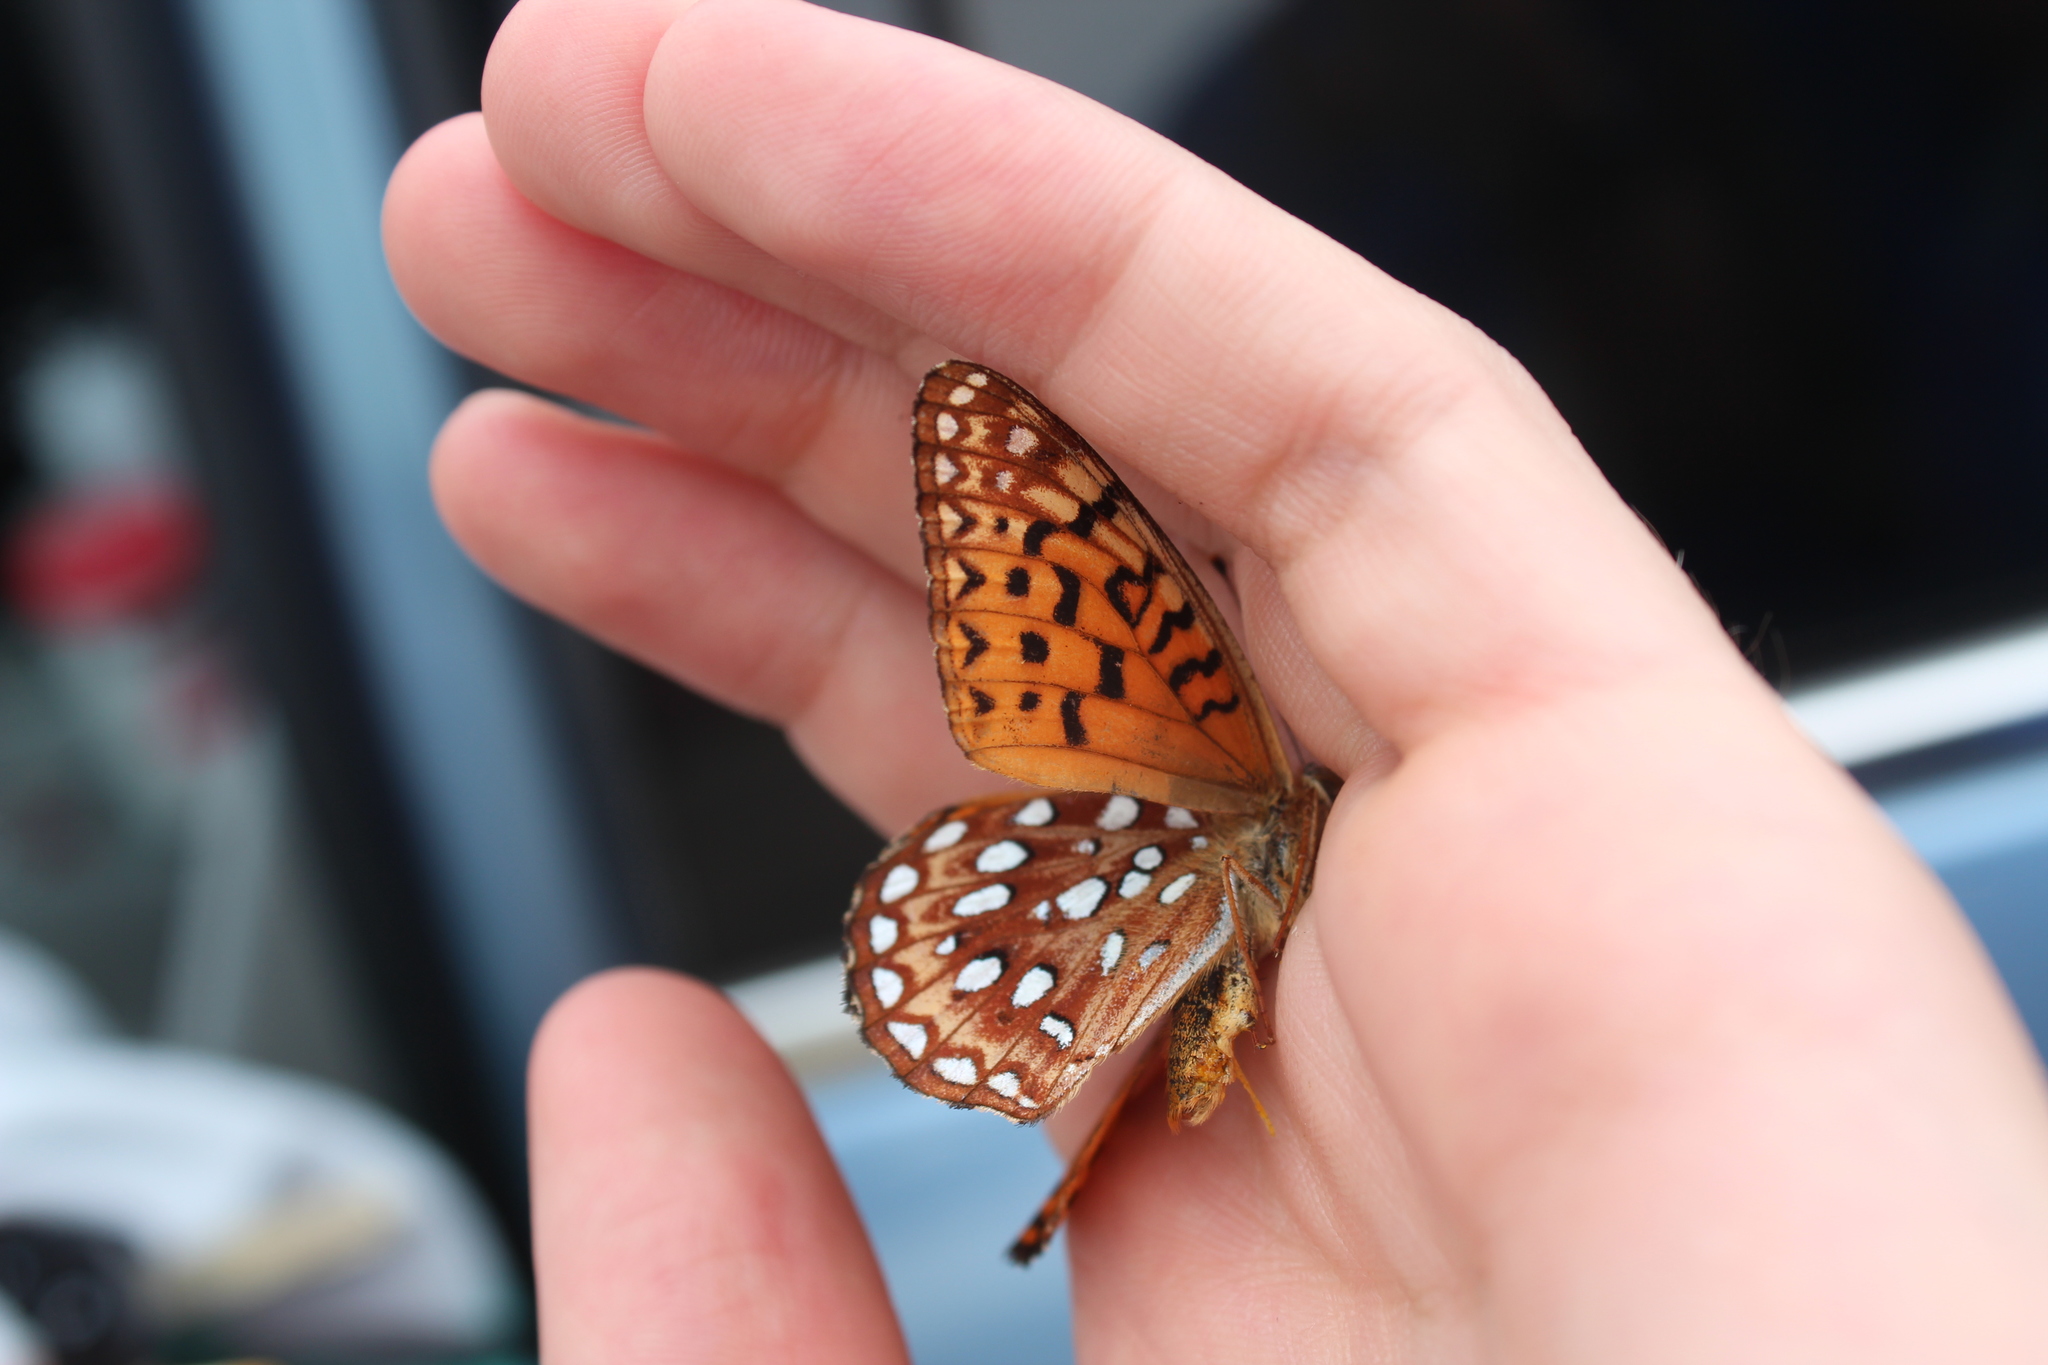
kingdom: Animalia
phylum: Arthropoda
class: Insecta
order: Lepidoptera
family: Nymphalidae
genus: Speyeria
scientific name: Speyeria aphrodite
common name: Aphrodite friitllary
